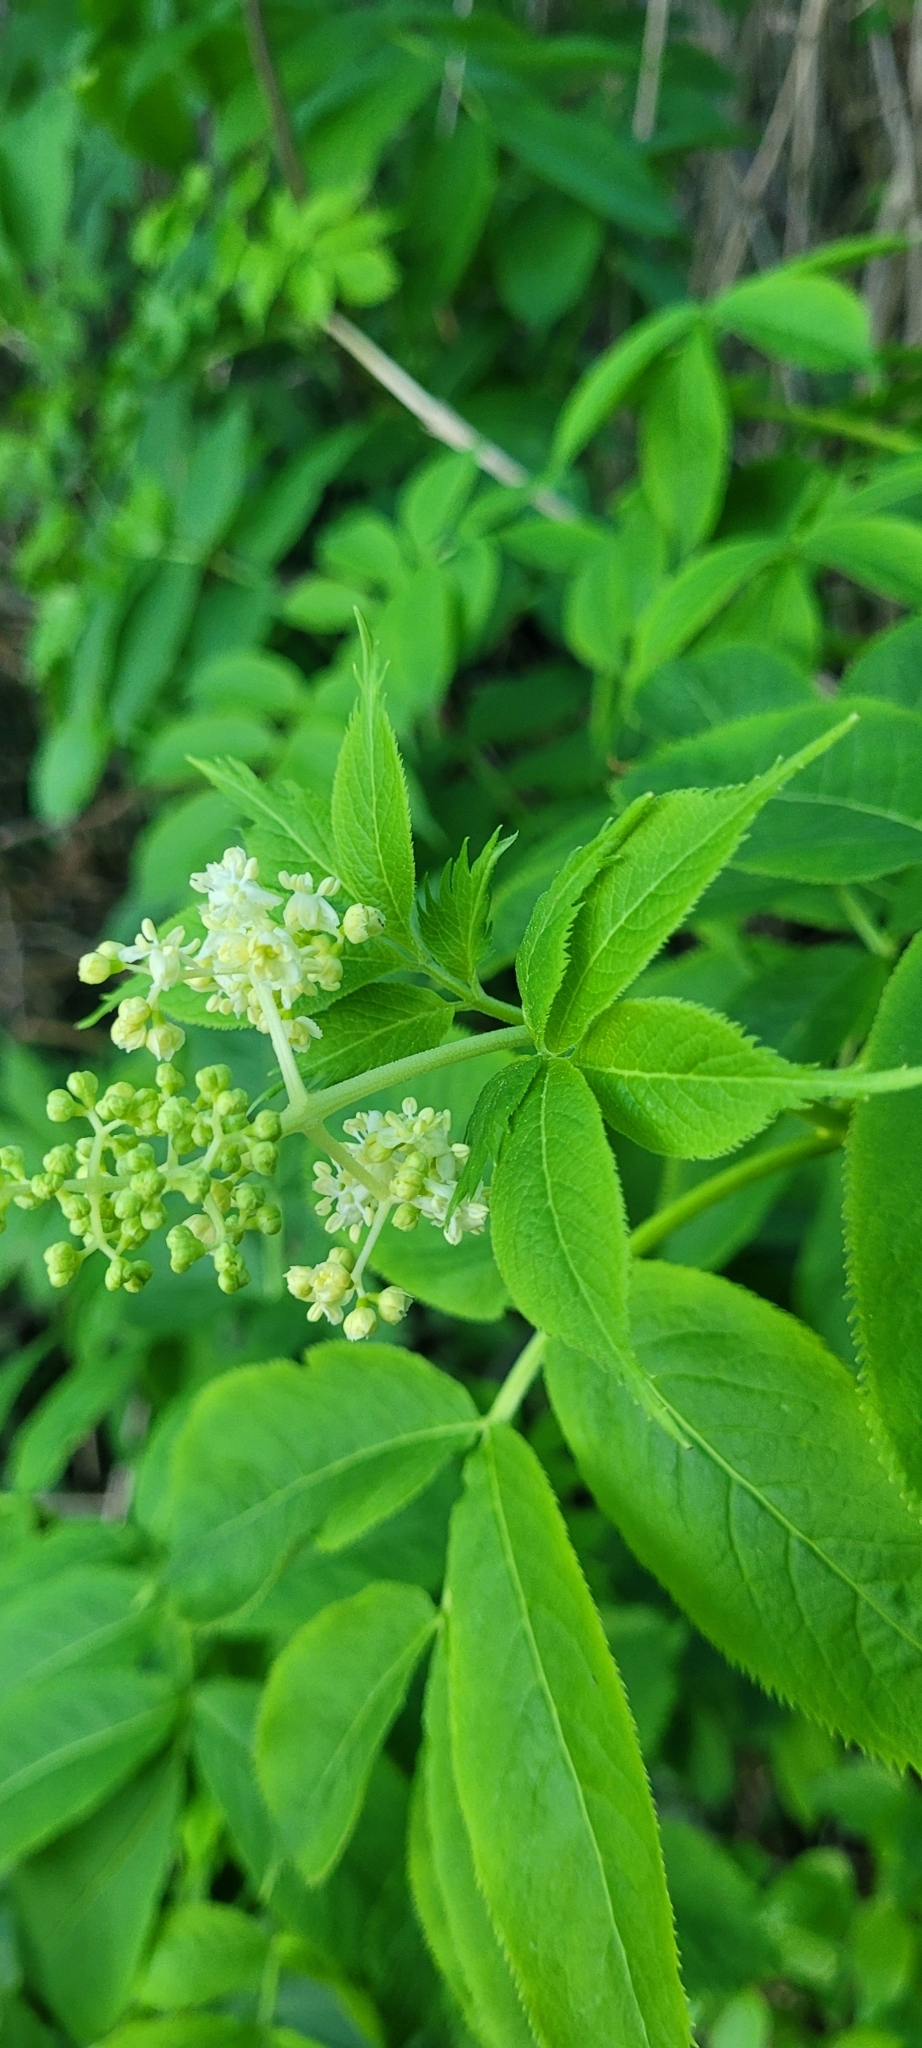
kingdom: Plantae
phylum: Tracheophyta
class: Magnoliopsida
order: Dipsacales
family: Viburnaceae
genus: Sambucus
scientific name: Sambucus racemosa
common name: Red-berried elder
